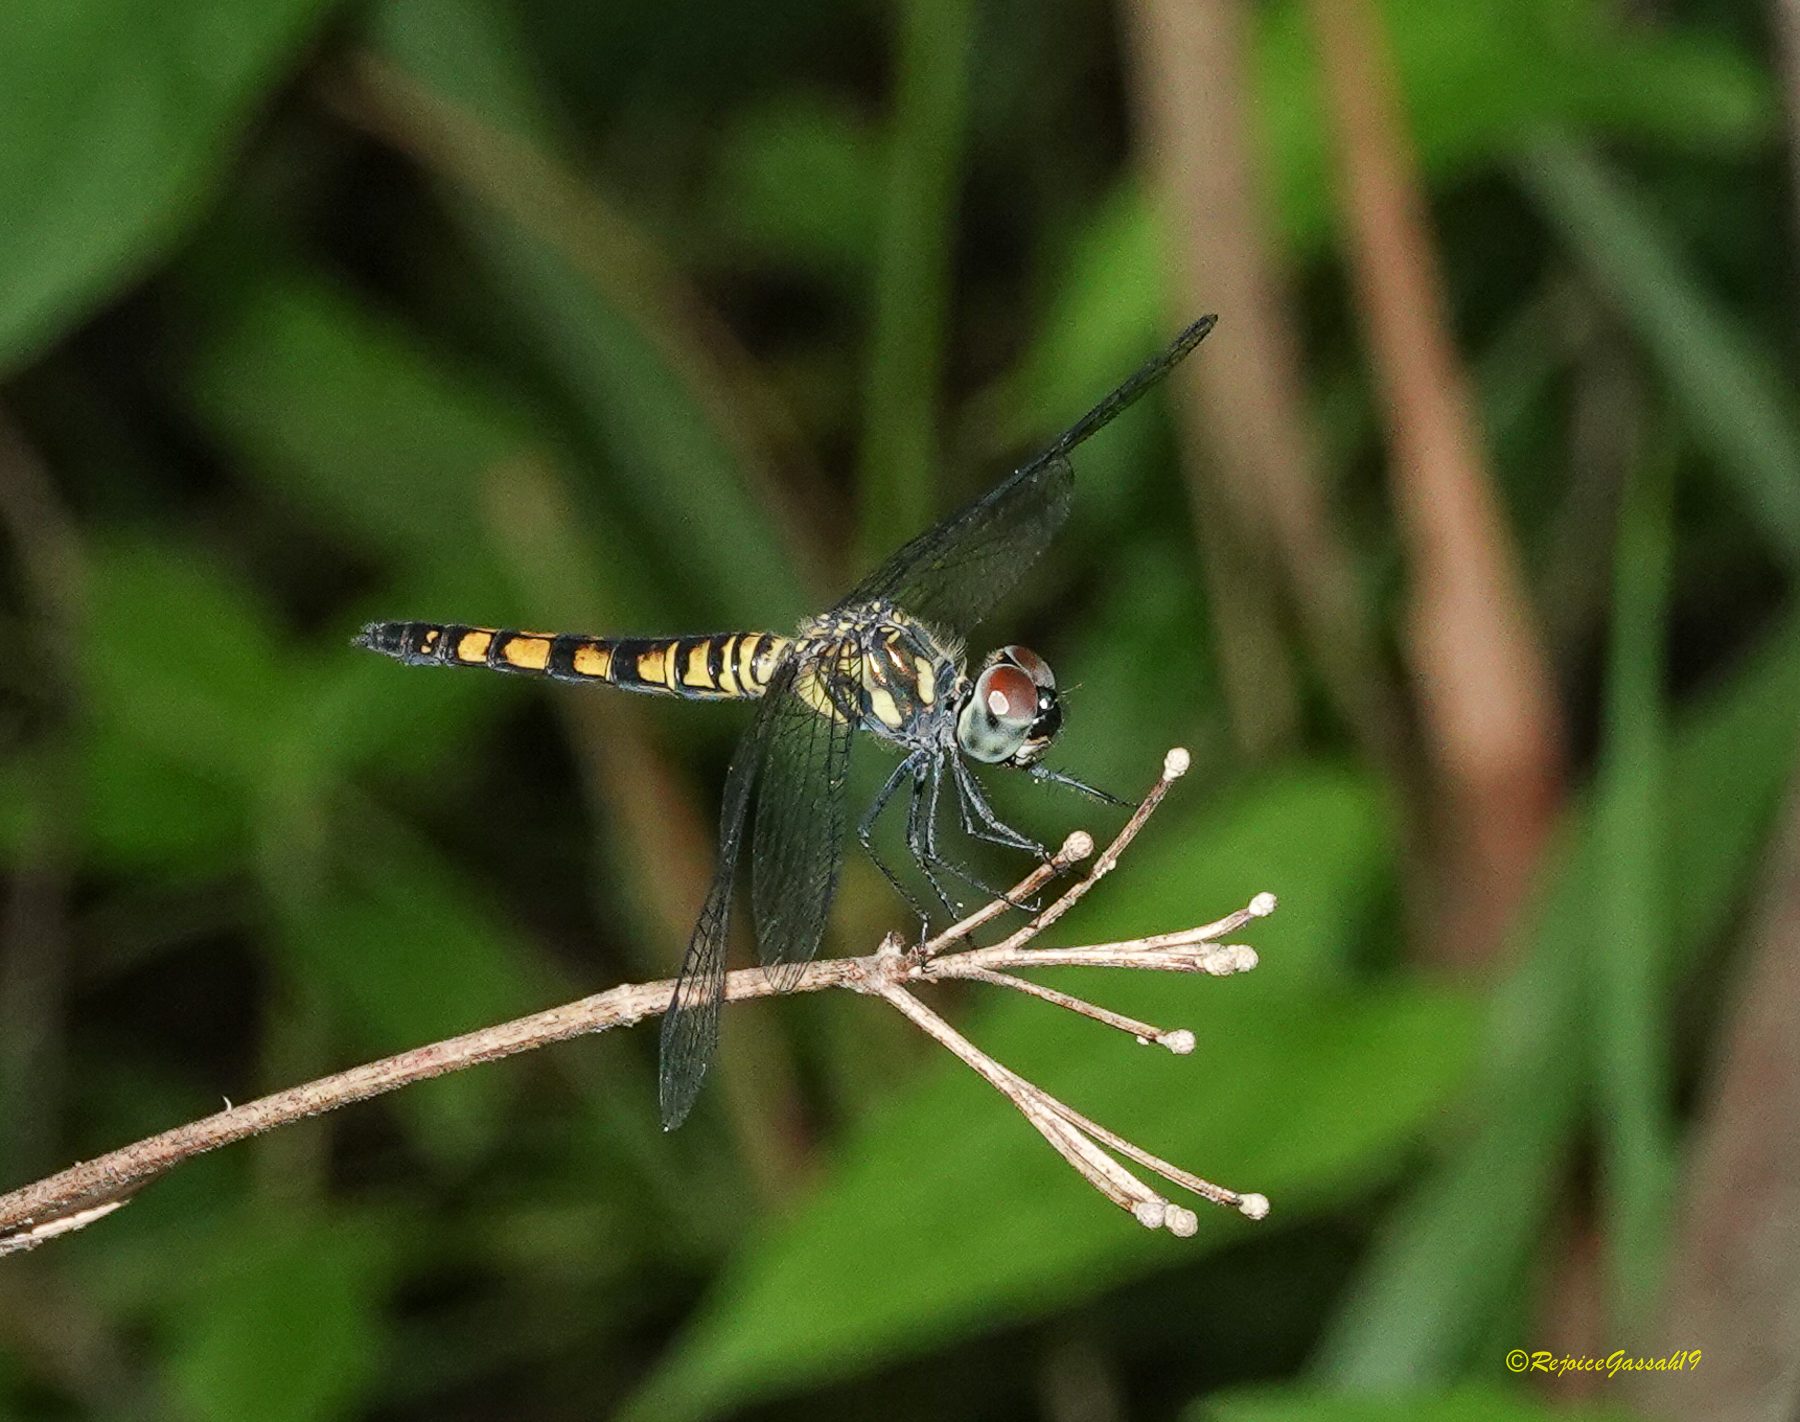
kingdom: Animalia
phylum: Arthropoda
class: Insecta
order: Odonata
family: Libellulidae
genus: Brachydiplax
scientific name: Brachydiplax sobrina
